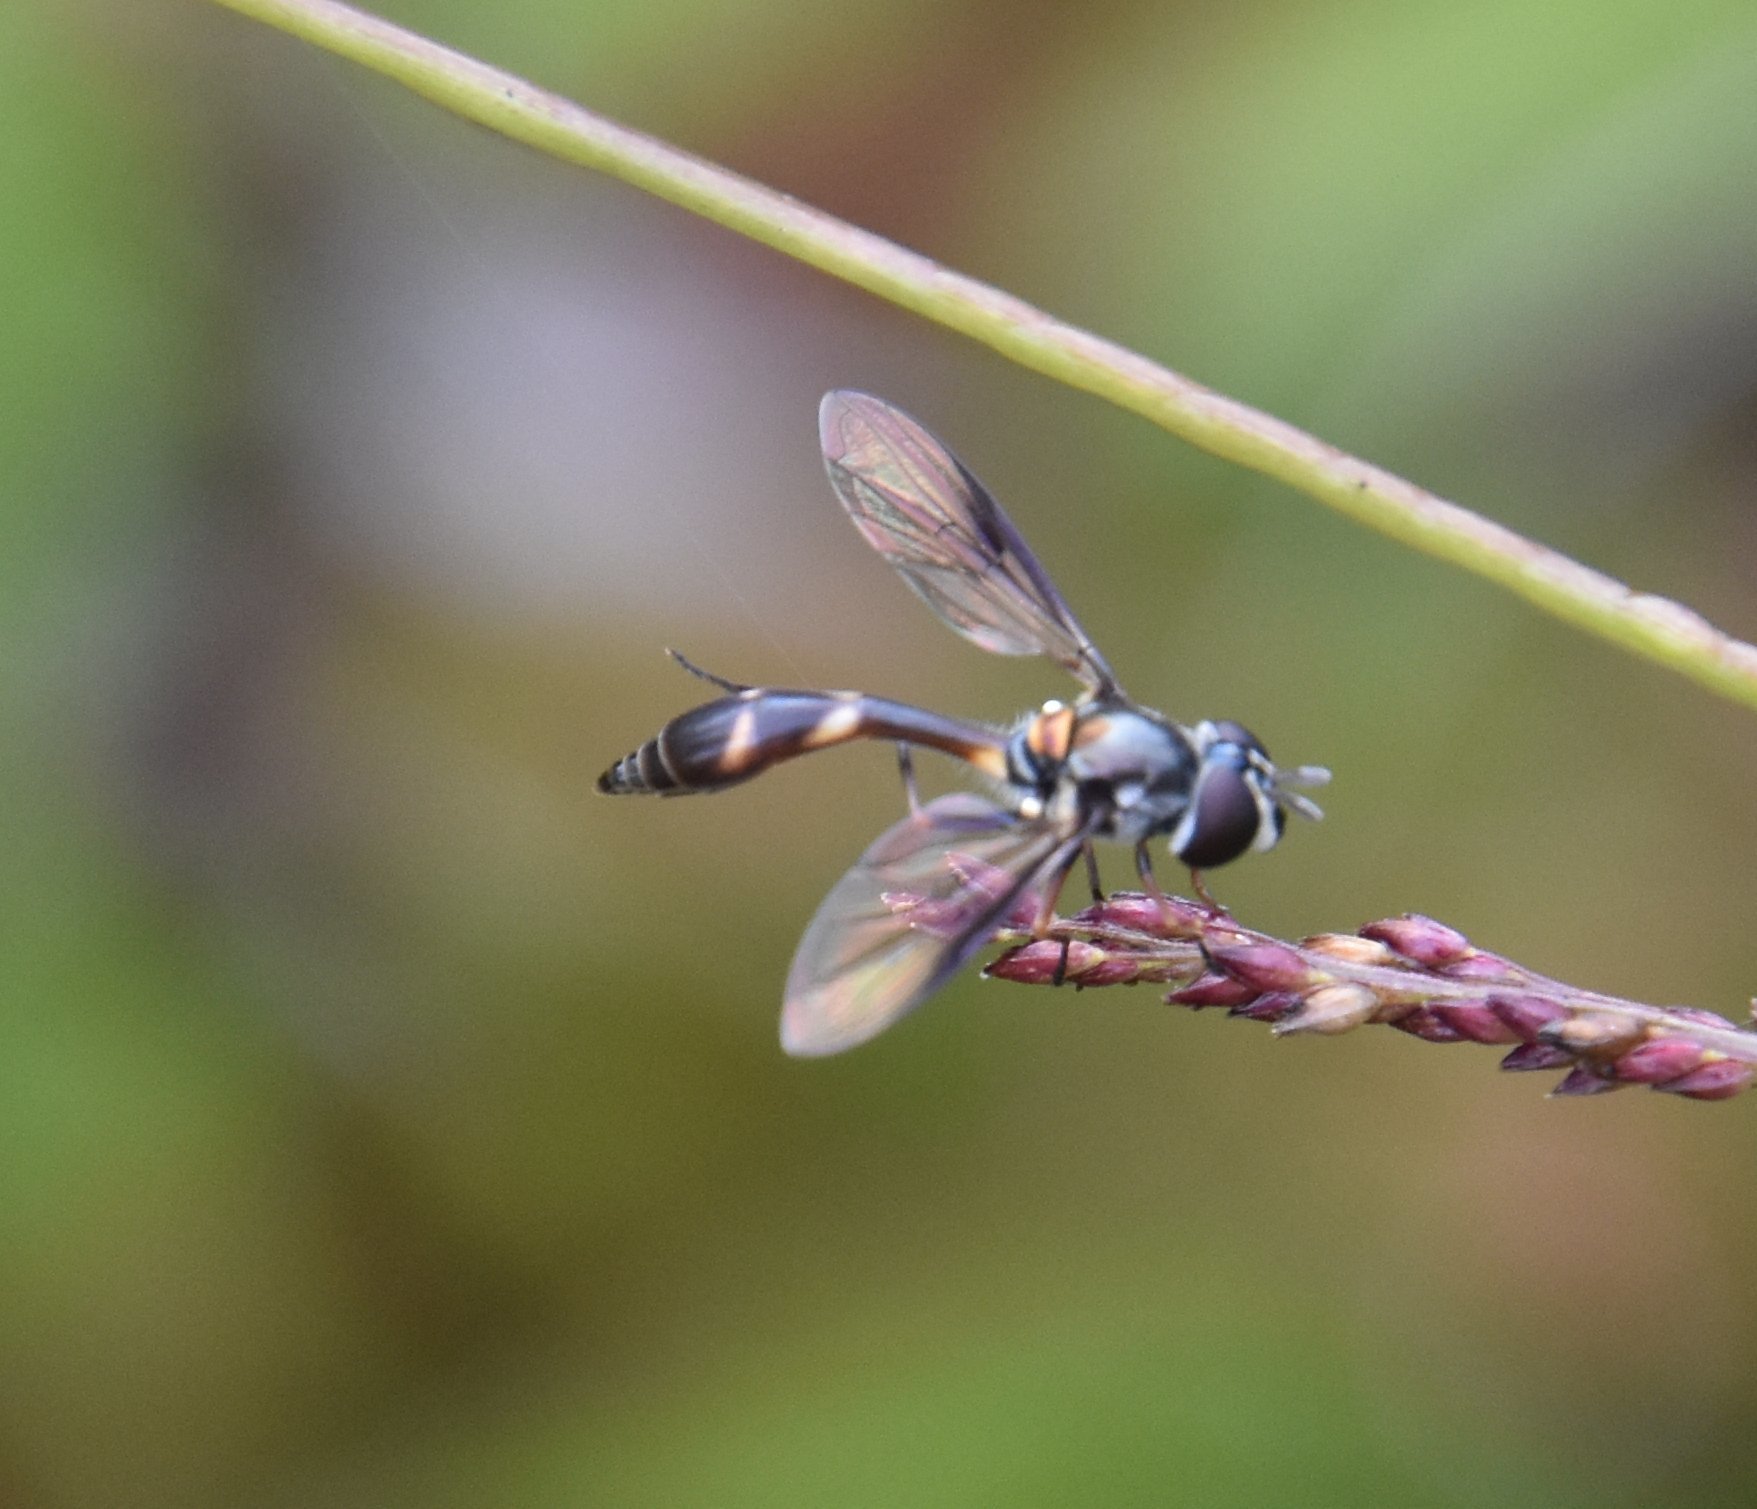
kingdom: Animalia
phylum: Arthropoda
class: Insecta
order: Diptera
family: Syrphidae
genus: Dioprosopa
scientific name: Dioprosopa clavatus
